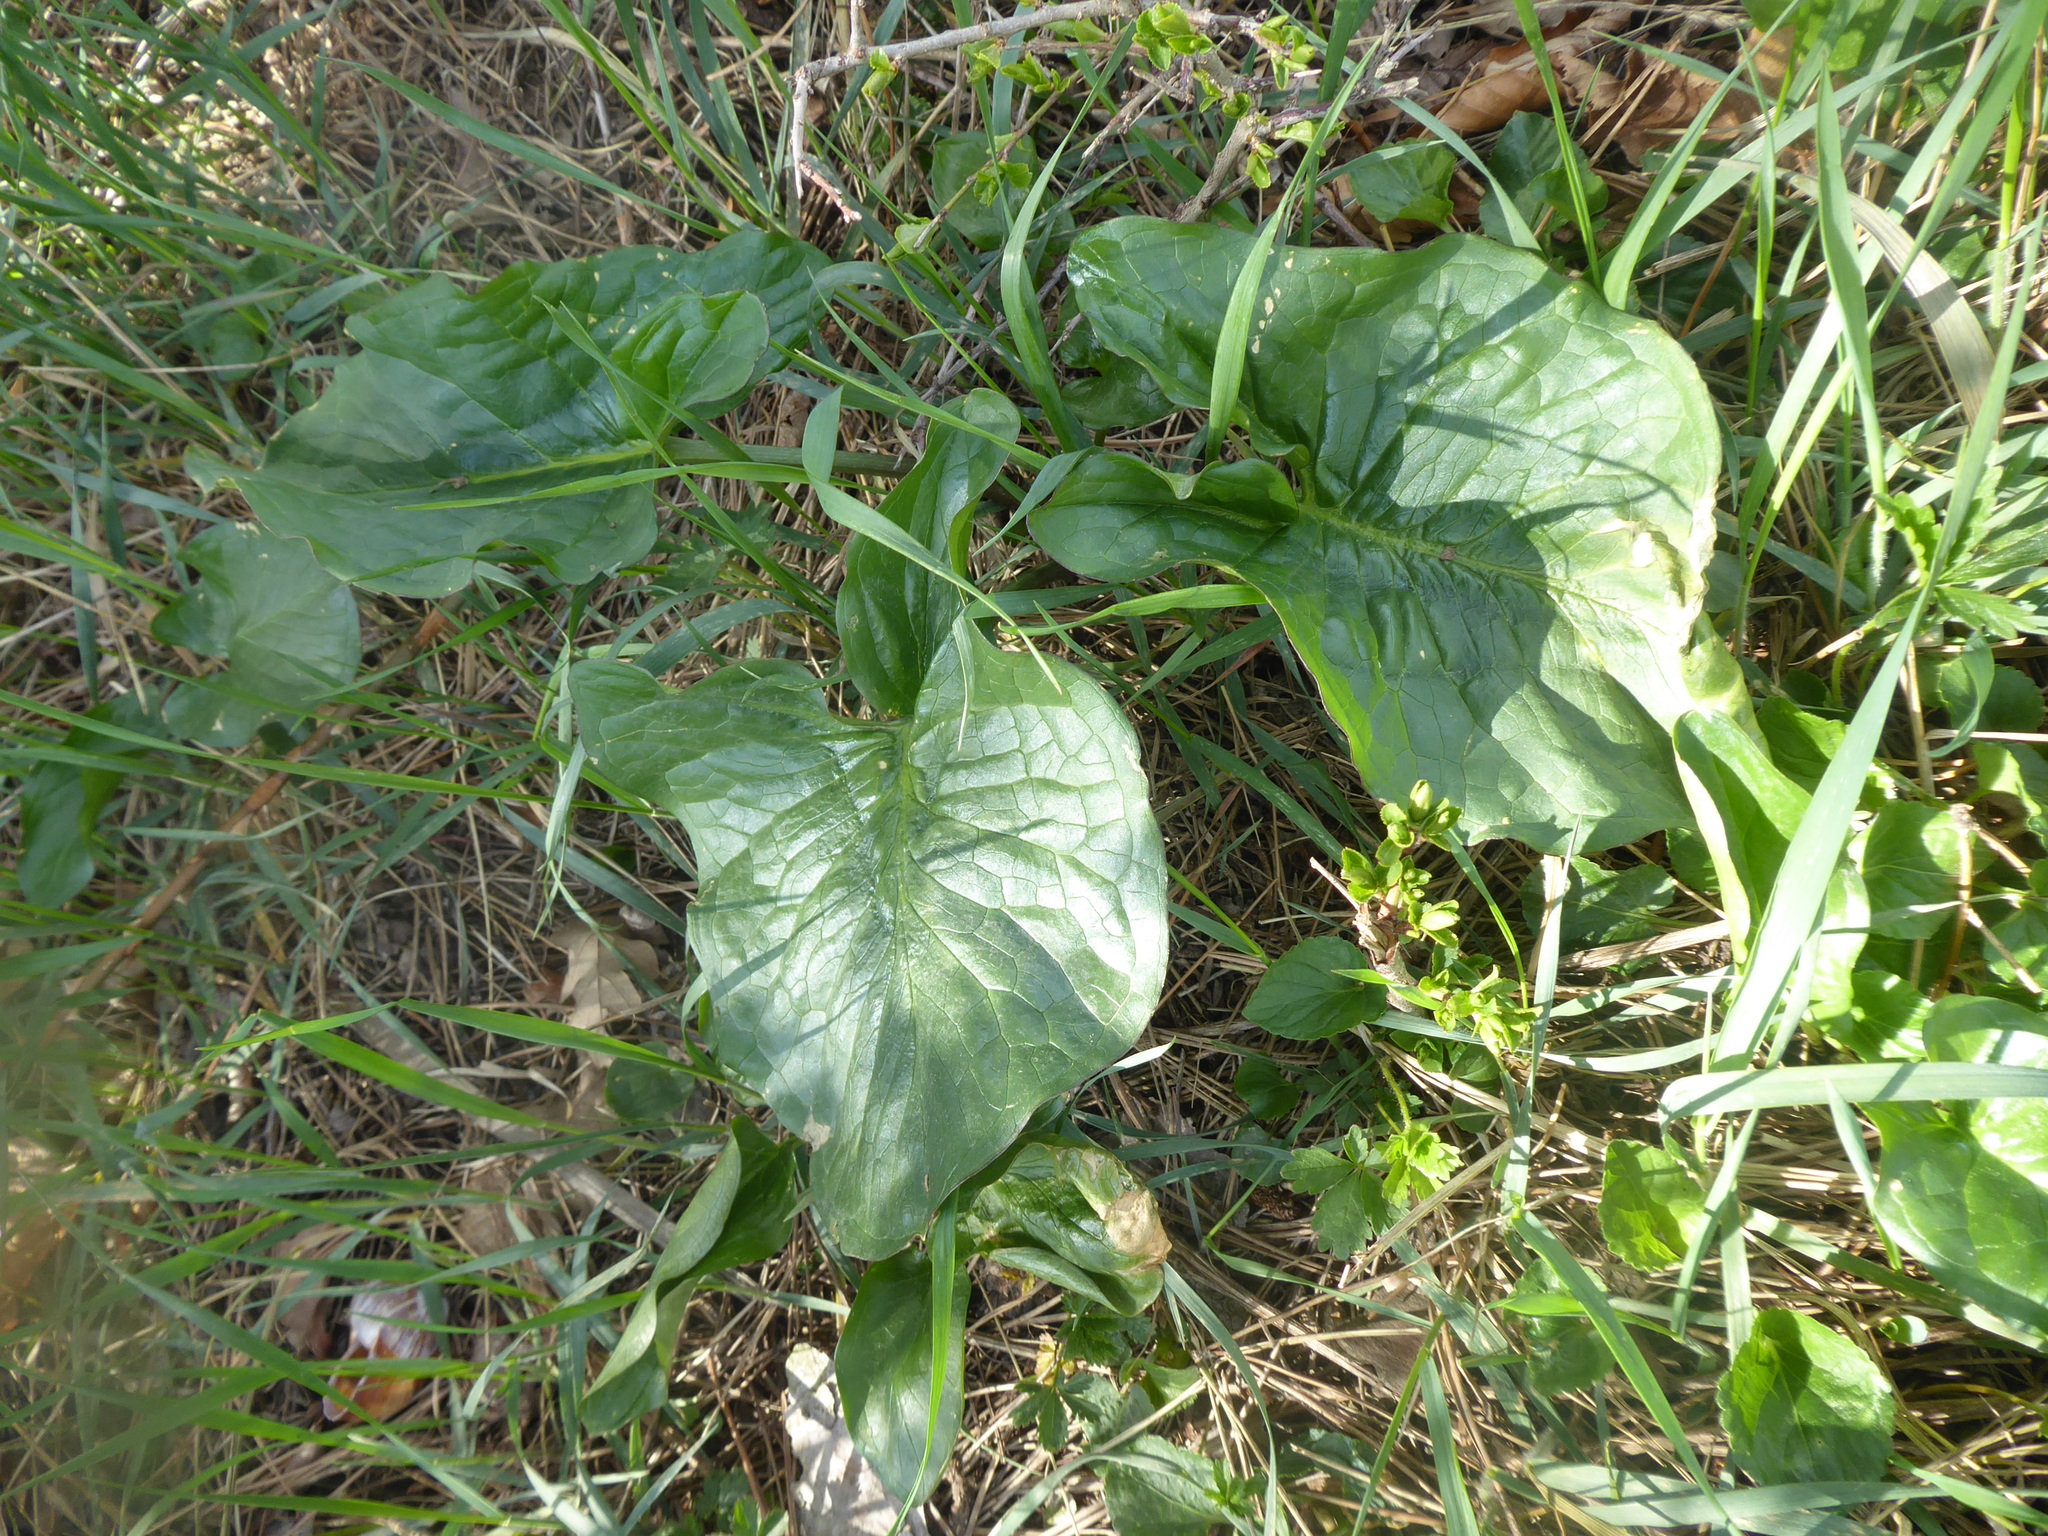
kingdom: Plantae
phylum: Tracheophyta
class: Liliopsida
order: Alismatales
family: Araceae
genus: Arum
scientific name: Arum cylindraceum
